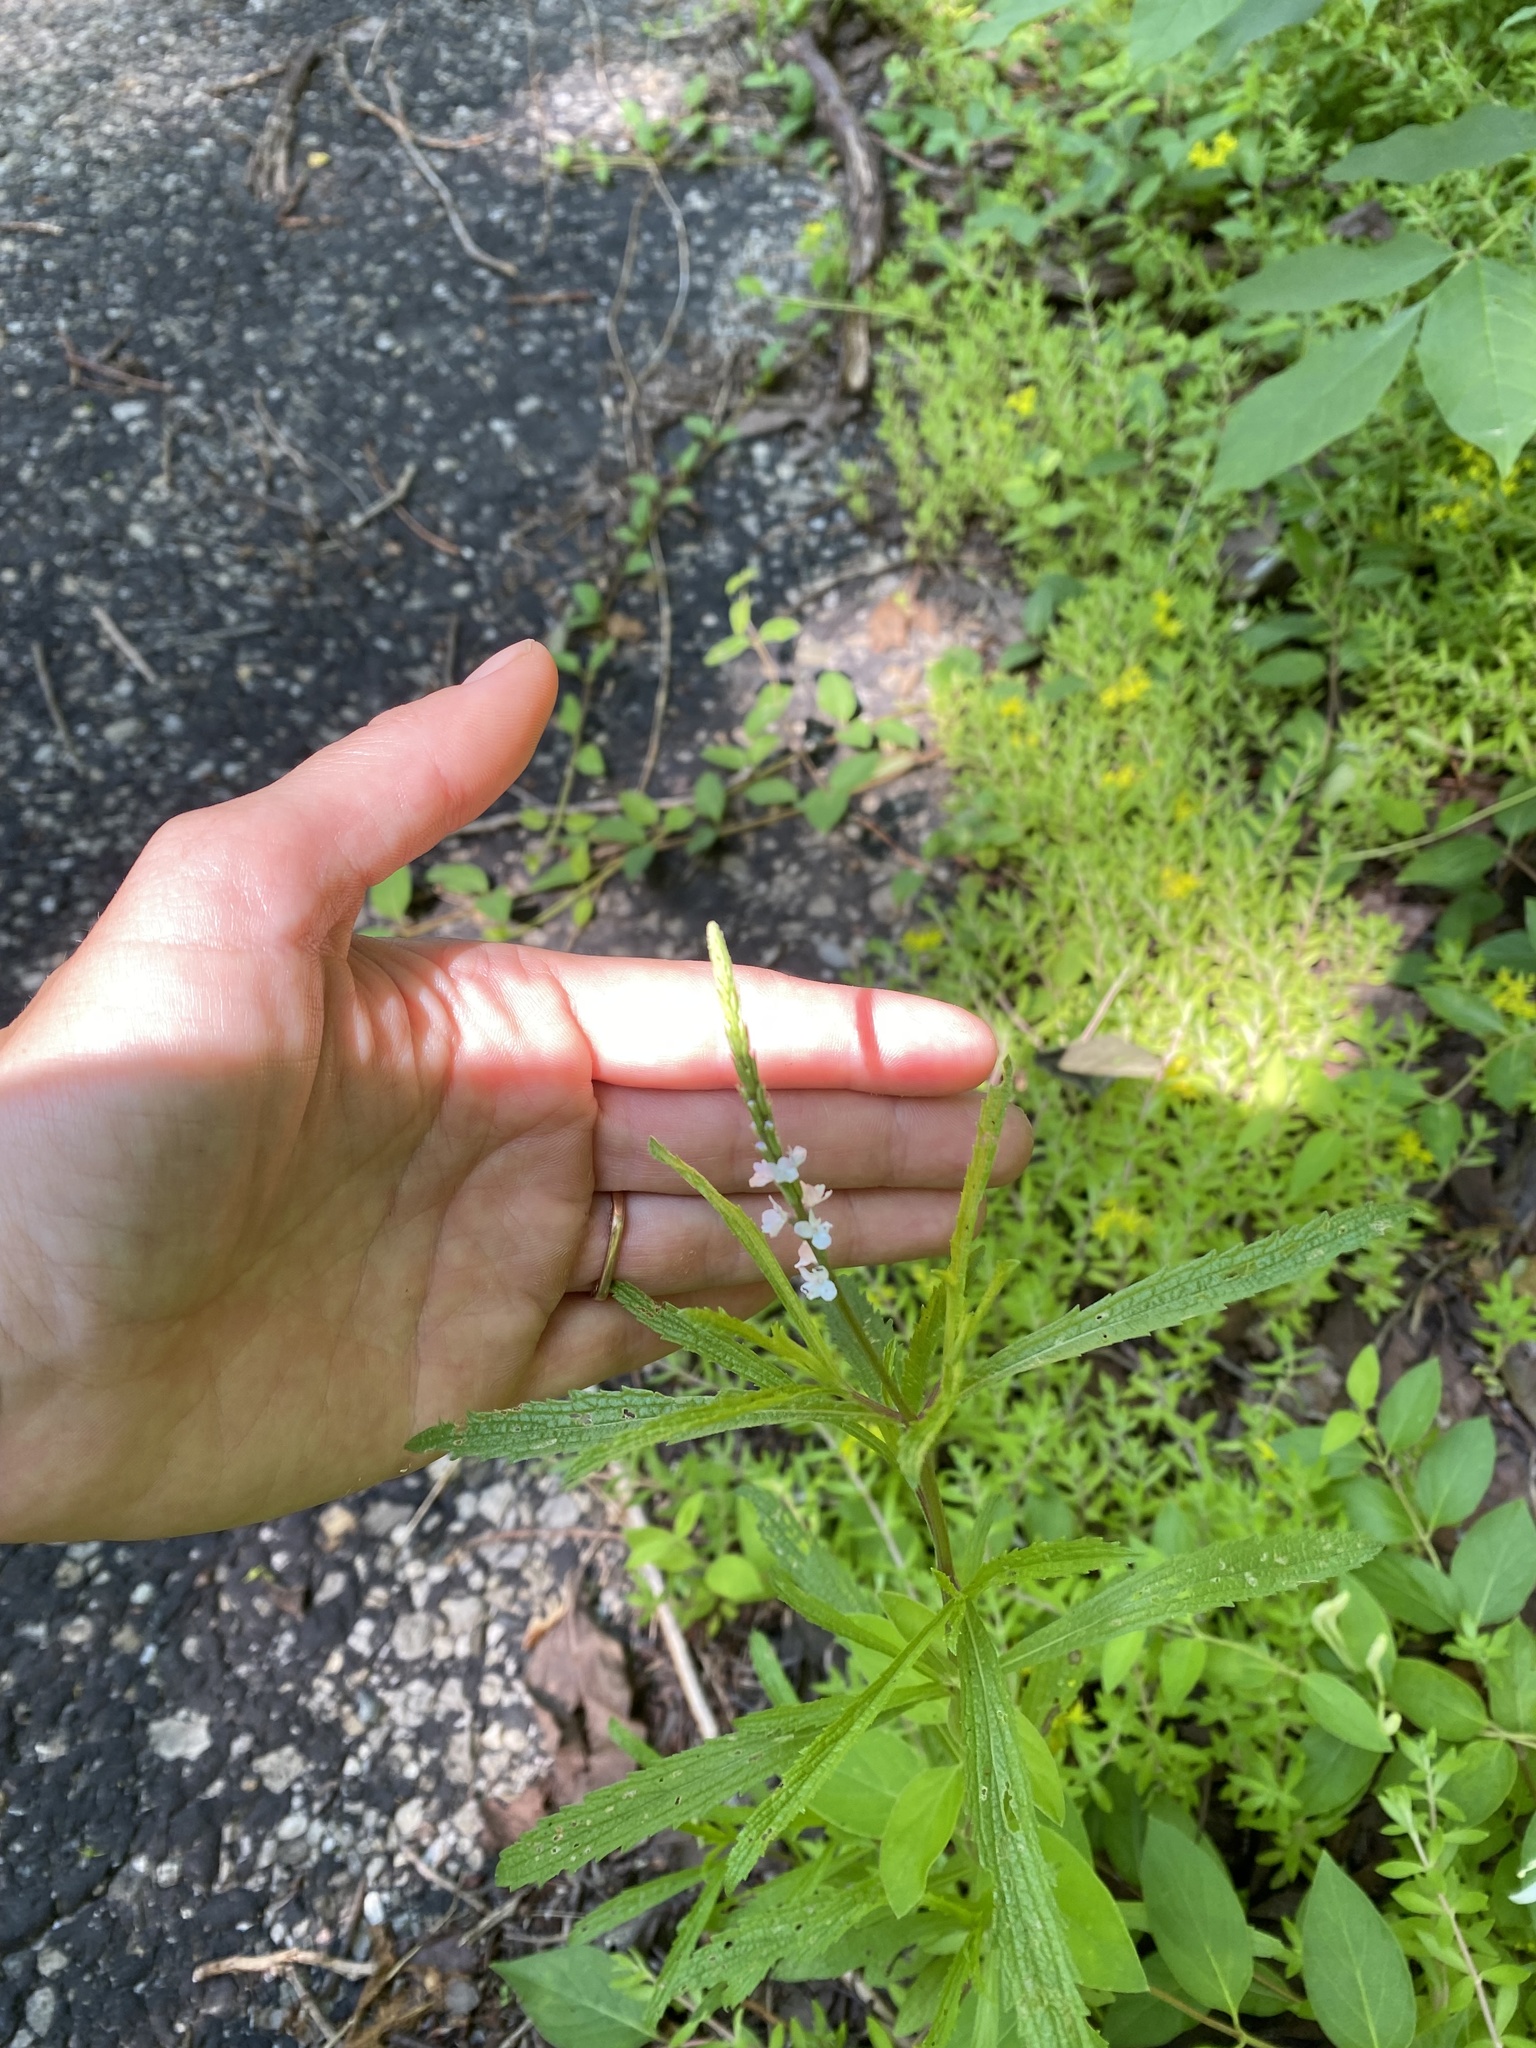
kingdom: Plantae
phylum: Tracheophyta
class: Magnoliopsida
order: Lamiales
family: Verbenaceae
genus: Verbena
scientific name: Verbena simplex
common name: Narrow-leaf vervain
